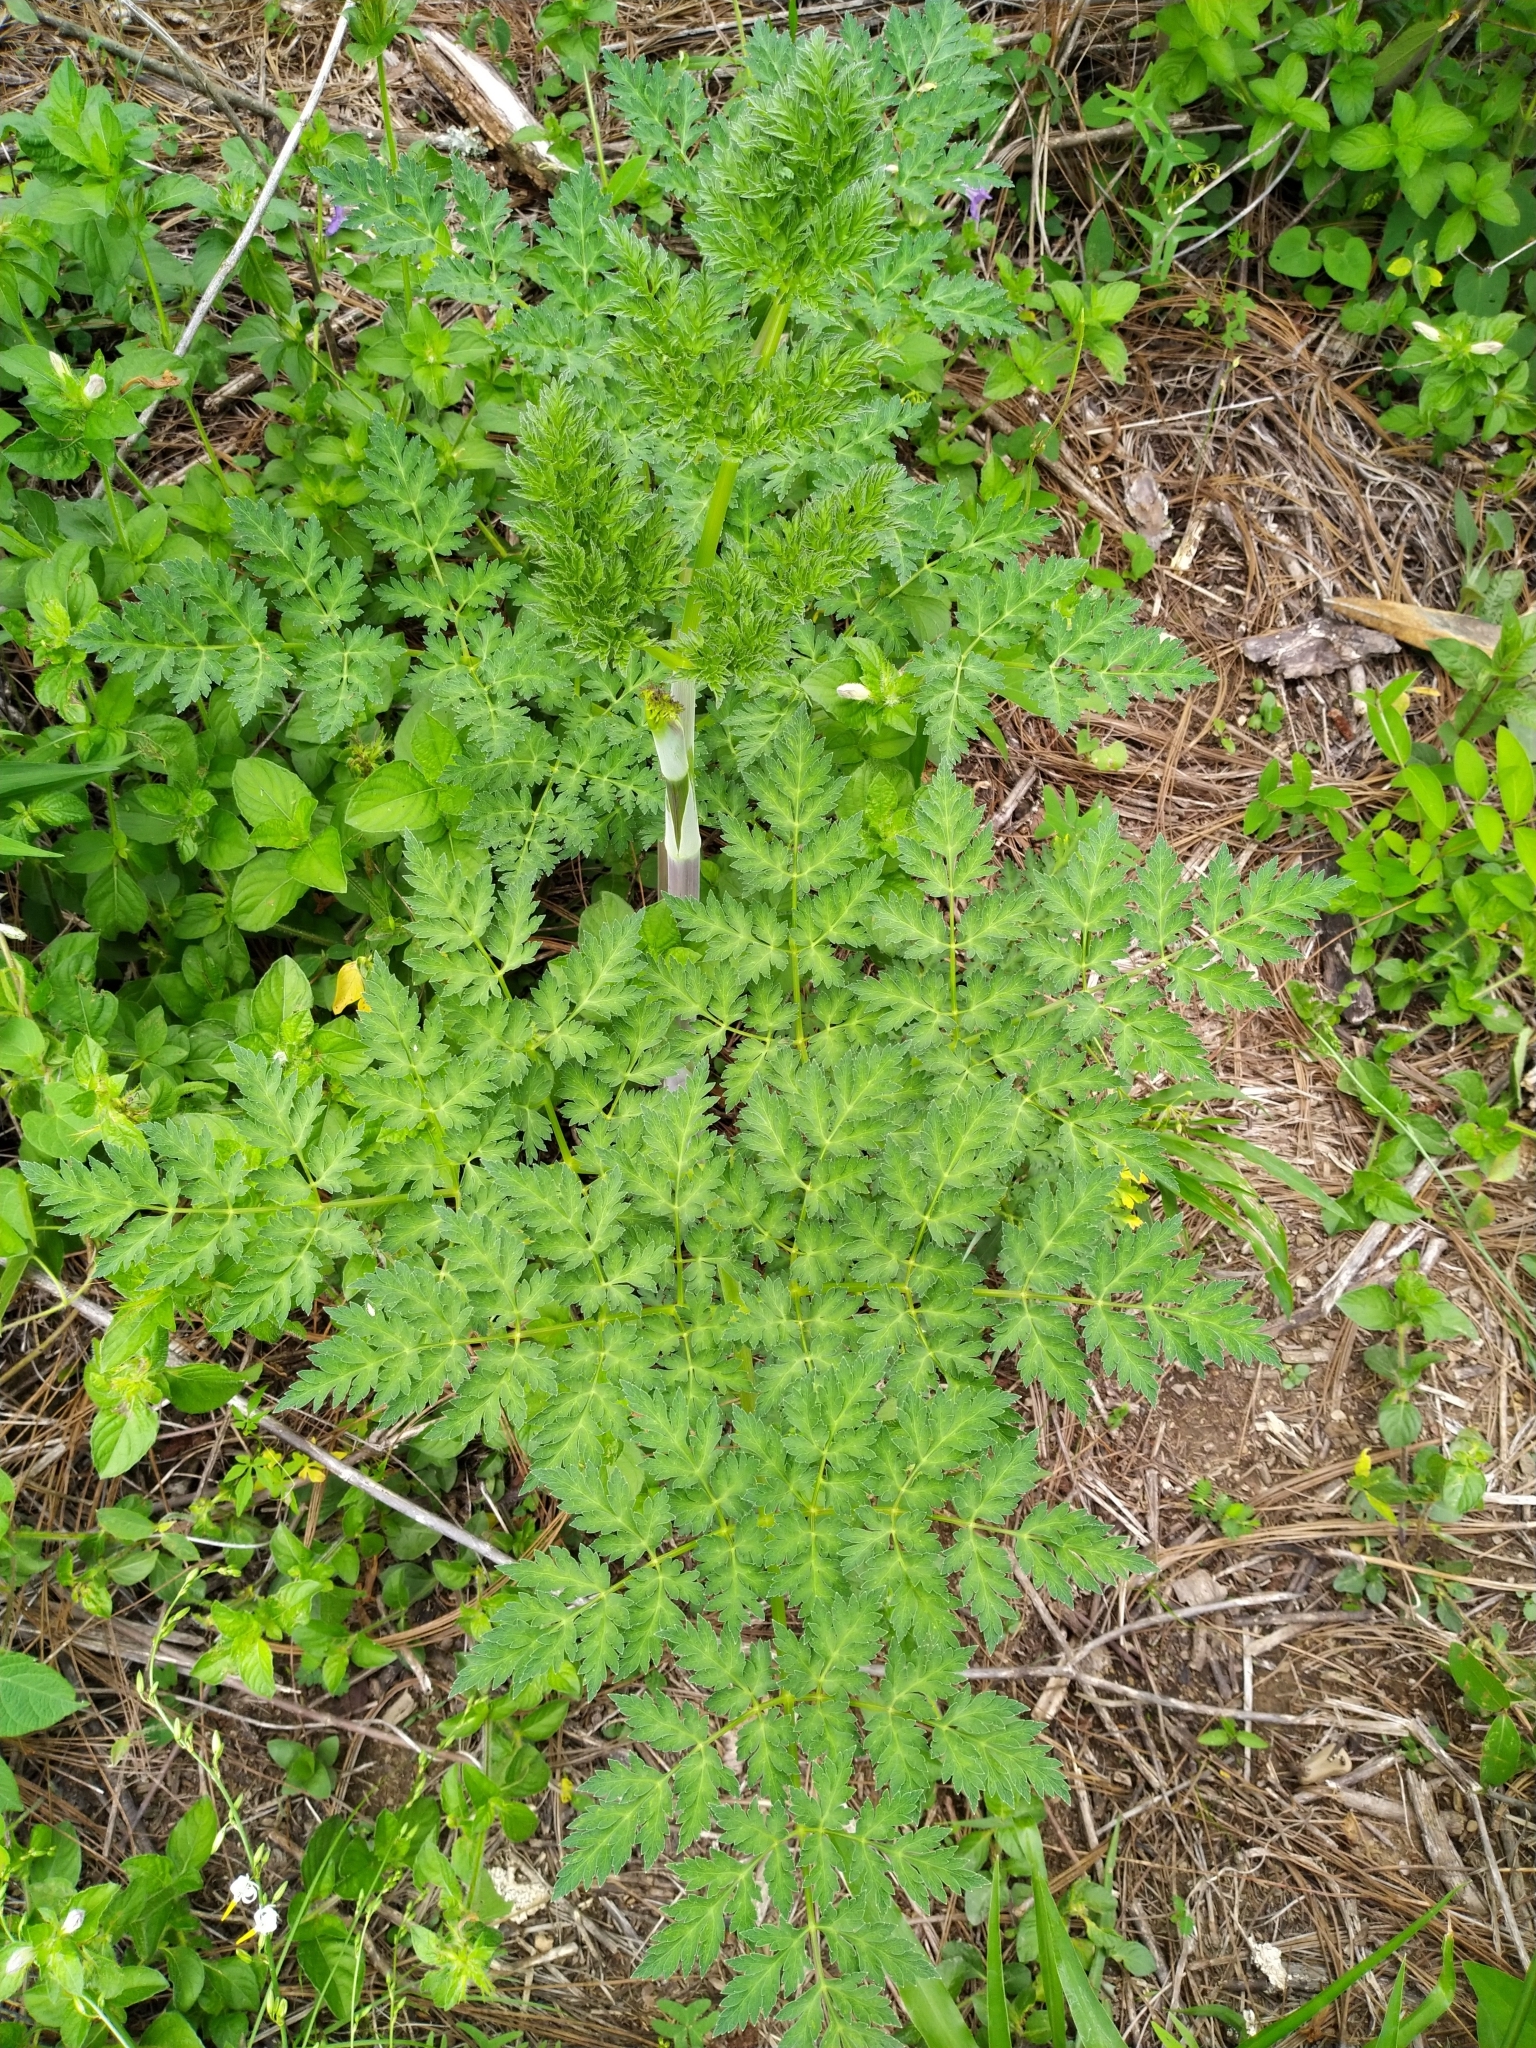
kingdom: Plantae
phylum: Tracheophyta
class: Magnoliopsida
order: Apiales
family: Apiaceae
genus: Conium
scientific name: Conium maculatum
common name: Hemlock
